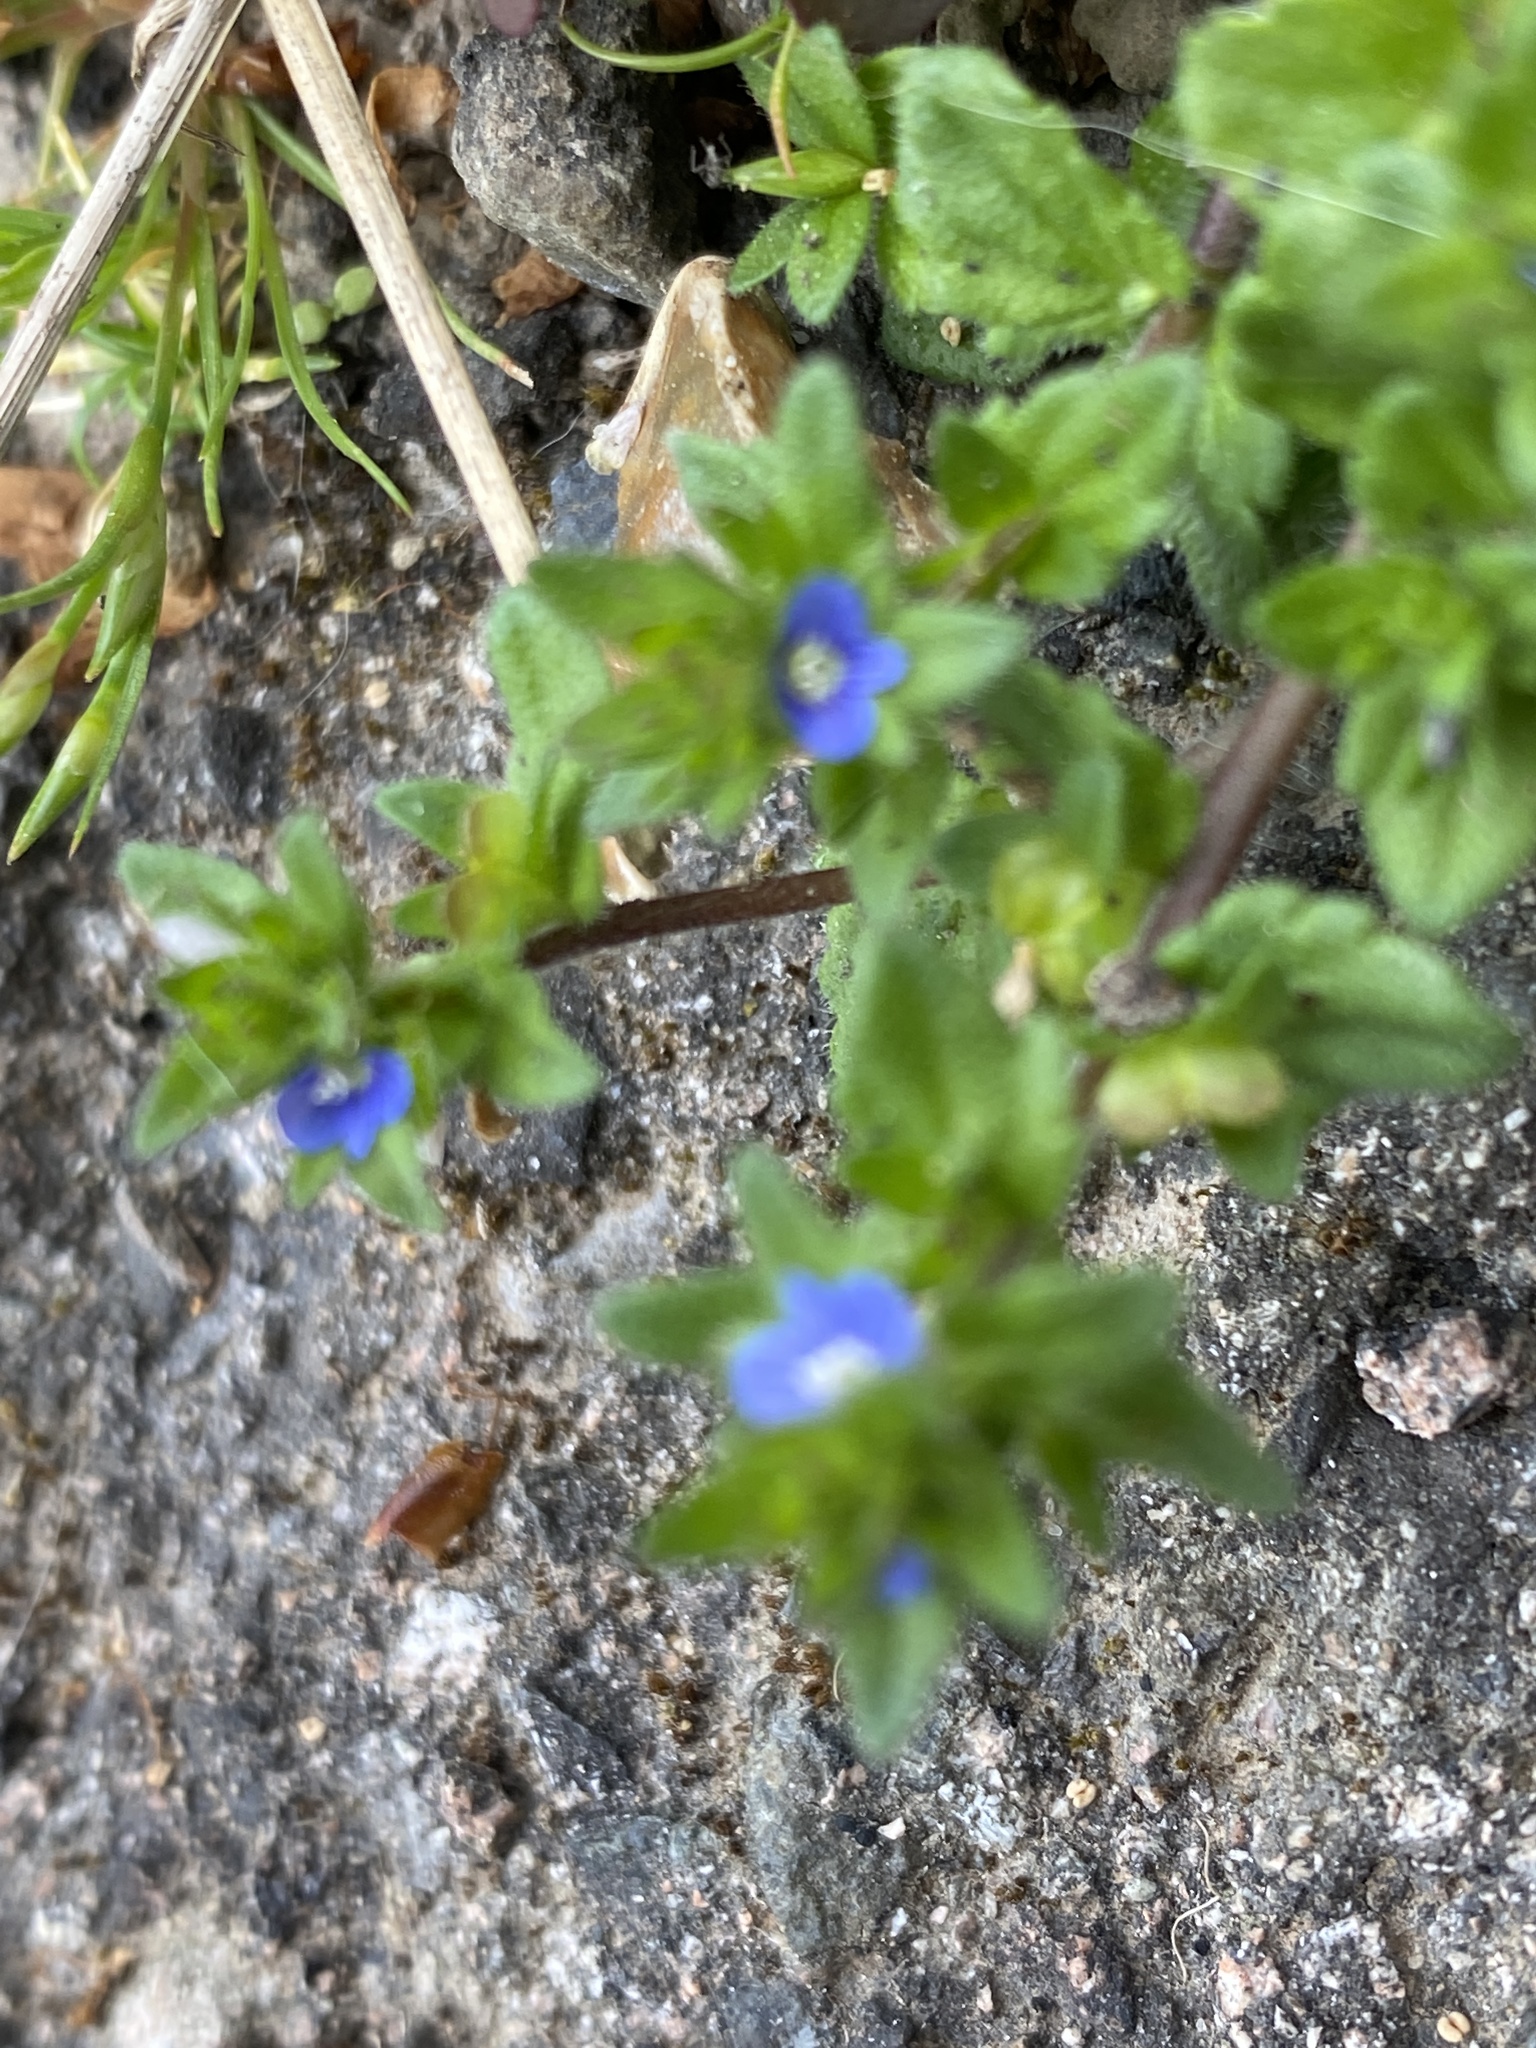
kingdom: Plantae
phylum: Tracheophyta
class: Magnoliopsida
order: Lamiales
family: Plantaginaceae
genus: Veronica
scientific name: Veronica arvensis
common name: Corn speedwell
